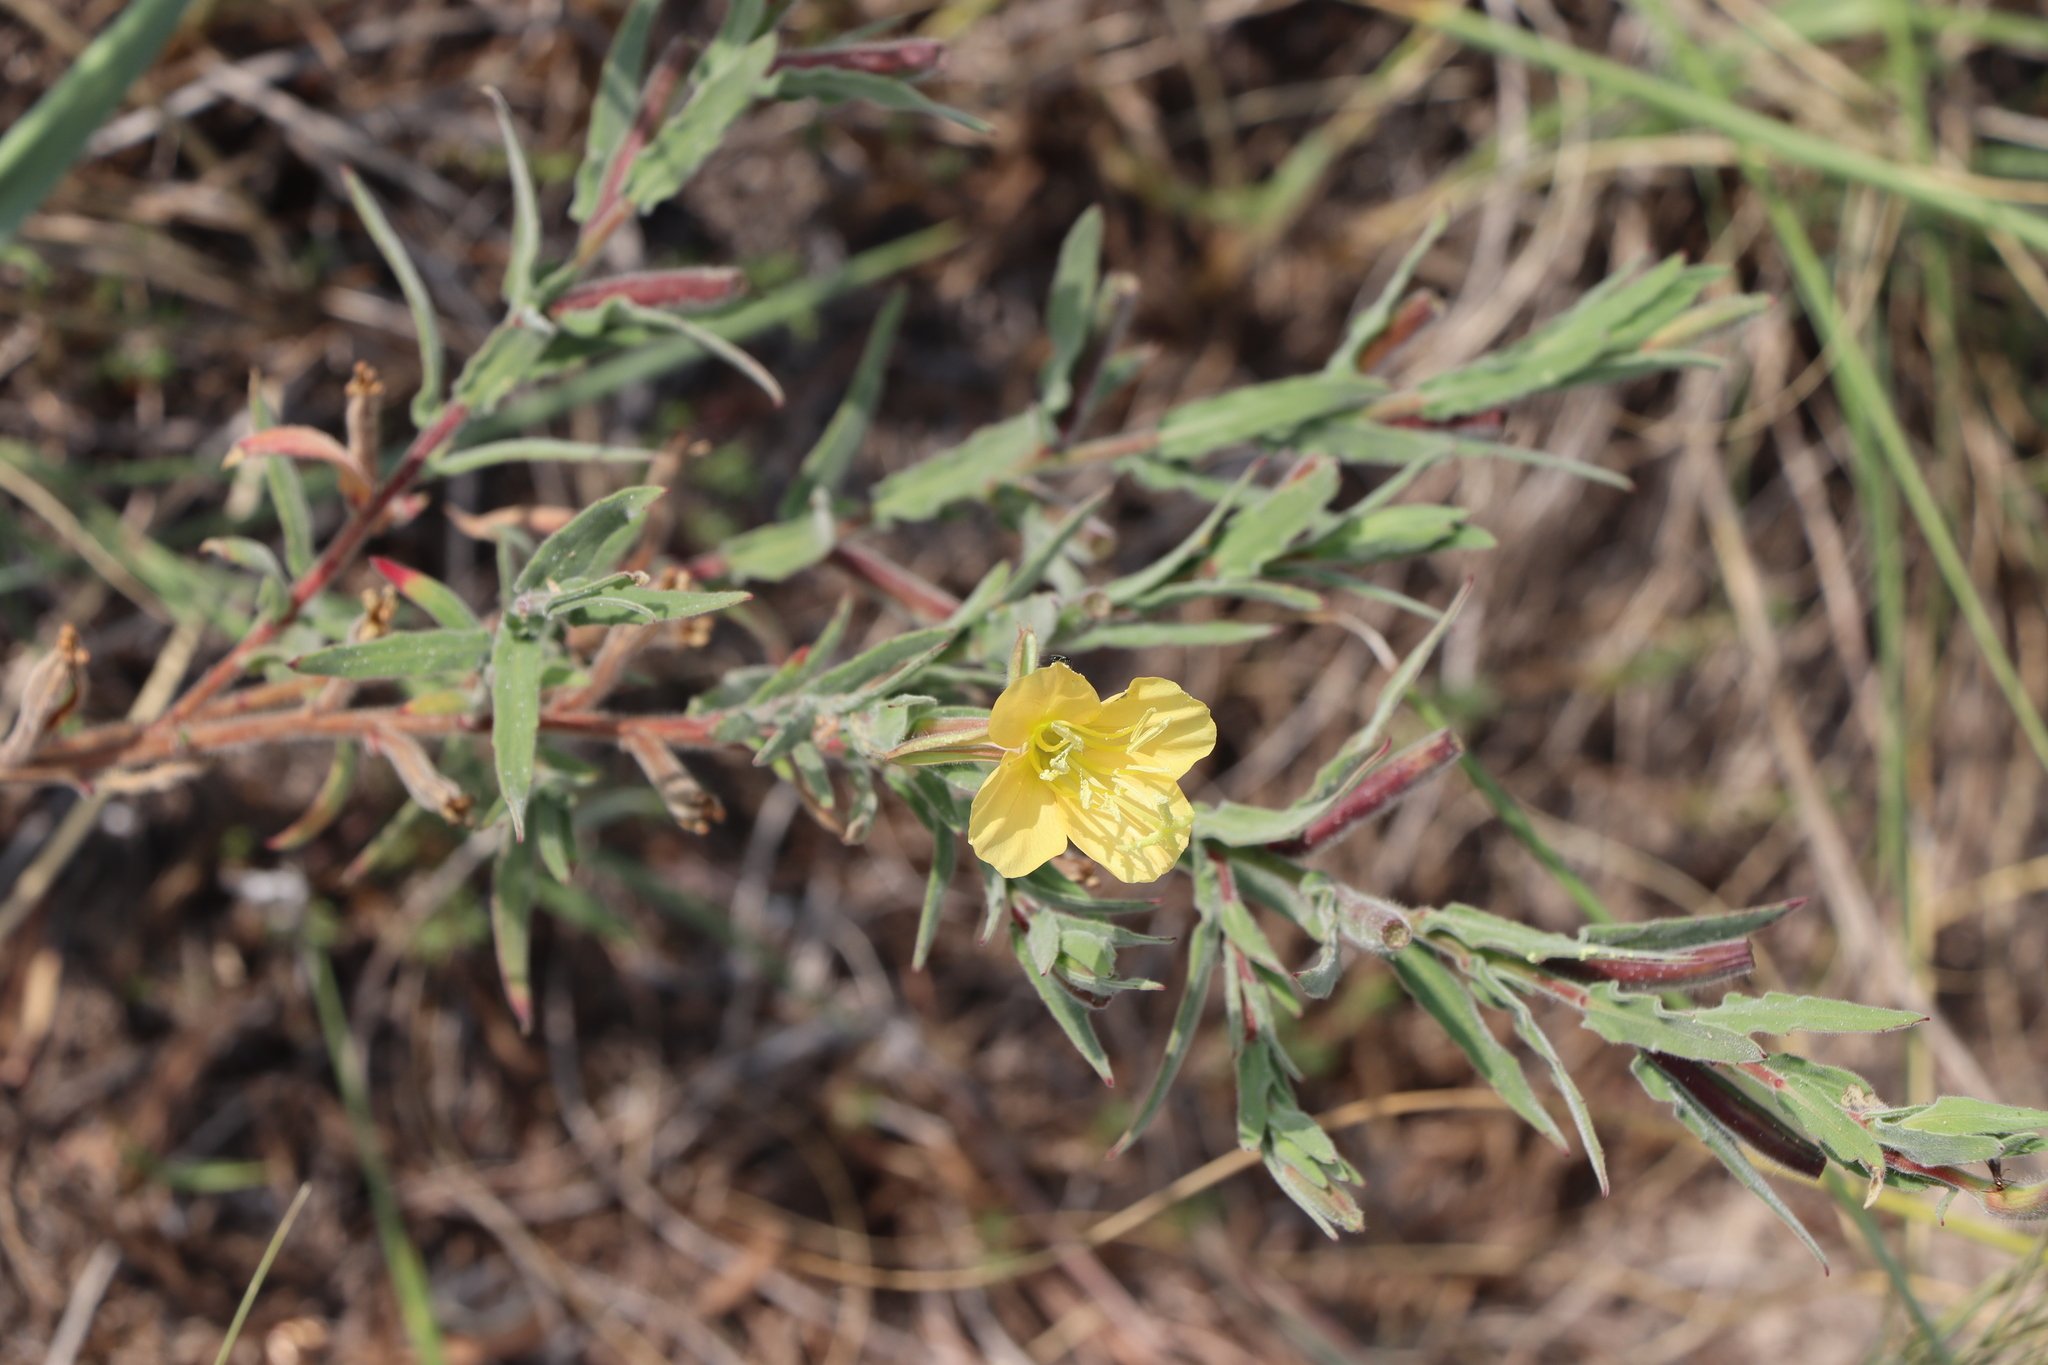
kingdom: Plantae
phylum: Tracheophyta
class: Magnoliopsida
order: Myrtales
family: Onagraceae
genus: Oenothera
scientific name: Oenothera mollissima
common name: Argentine evening primrose
